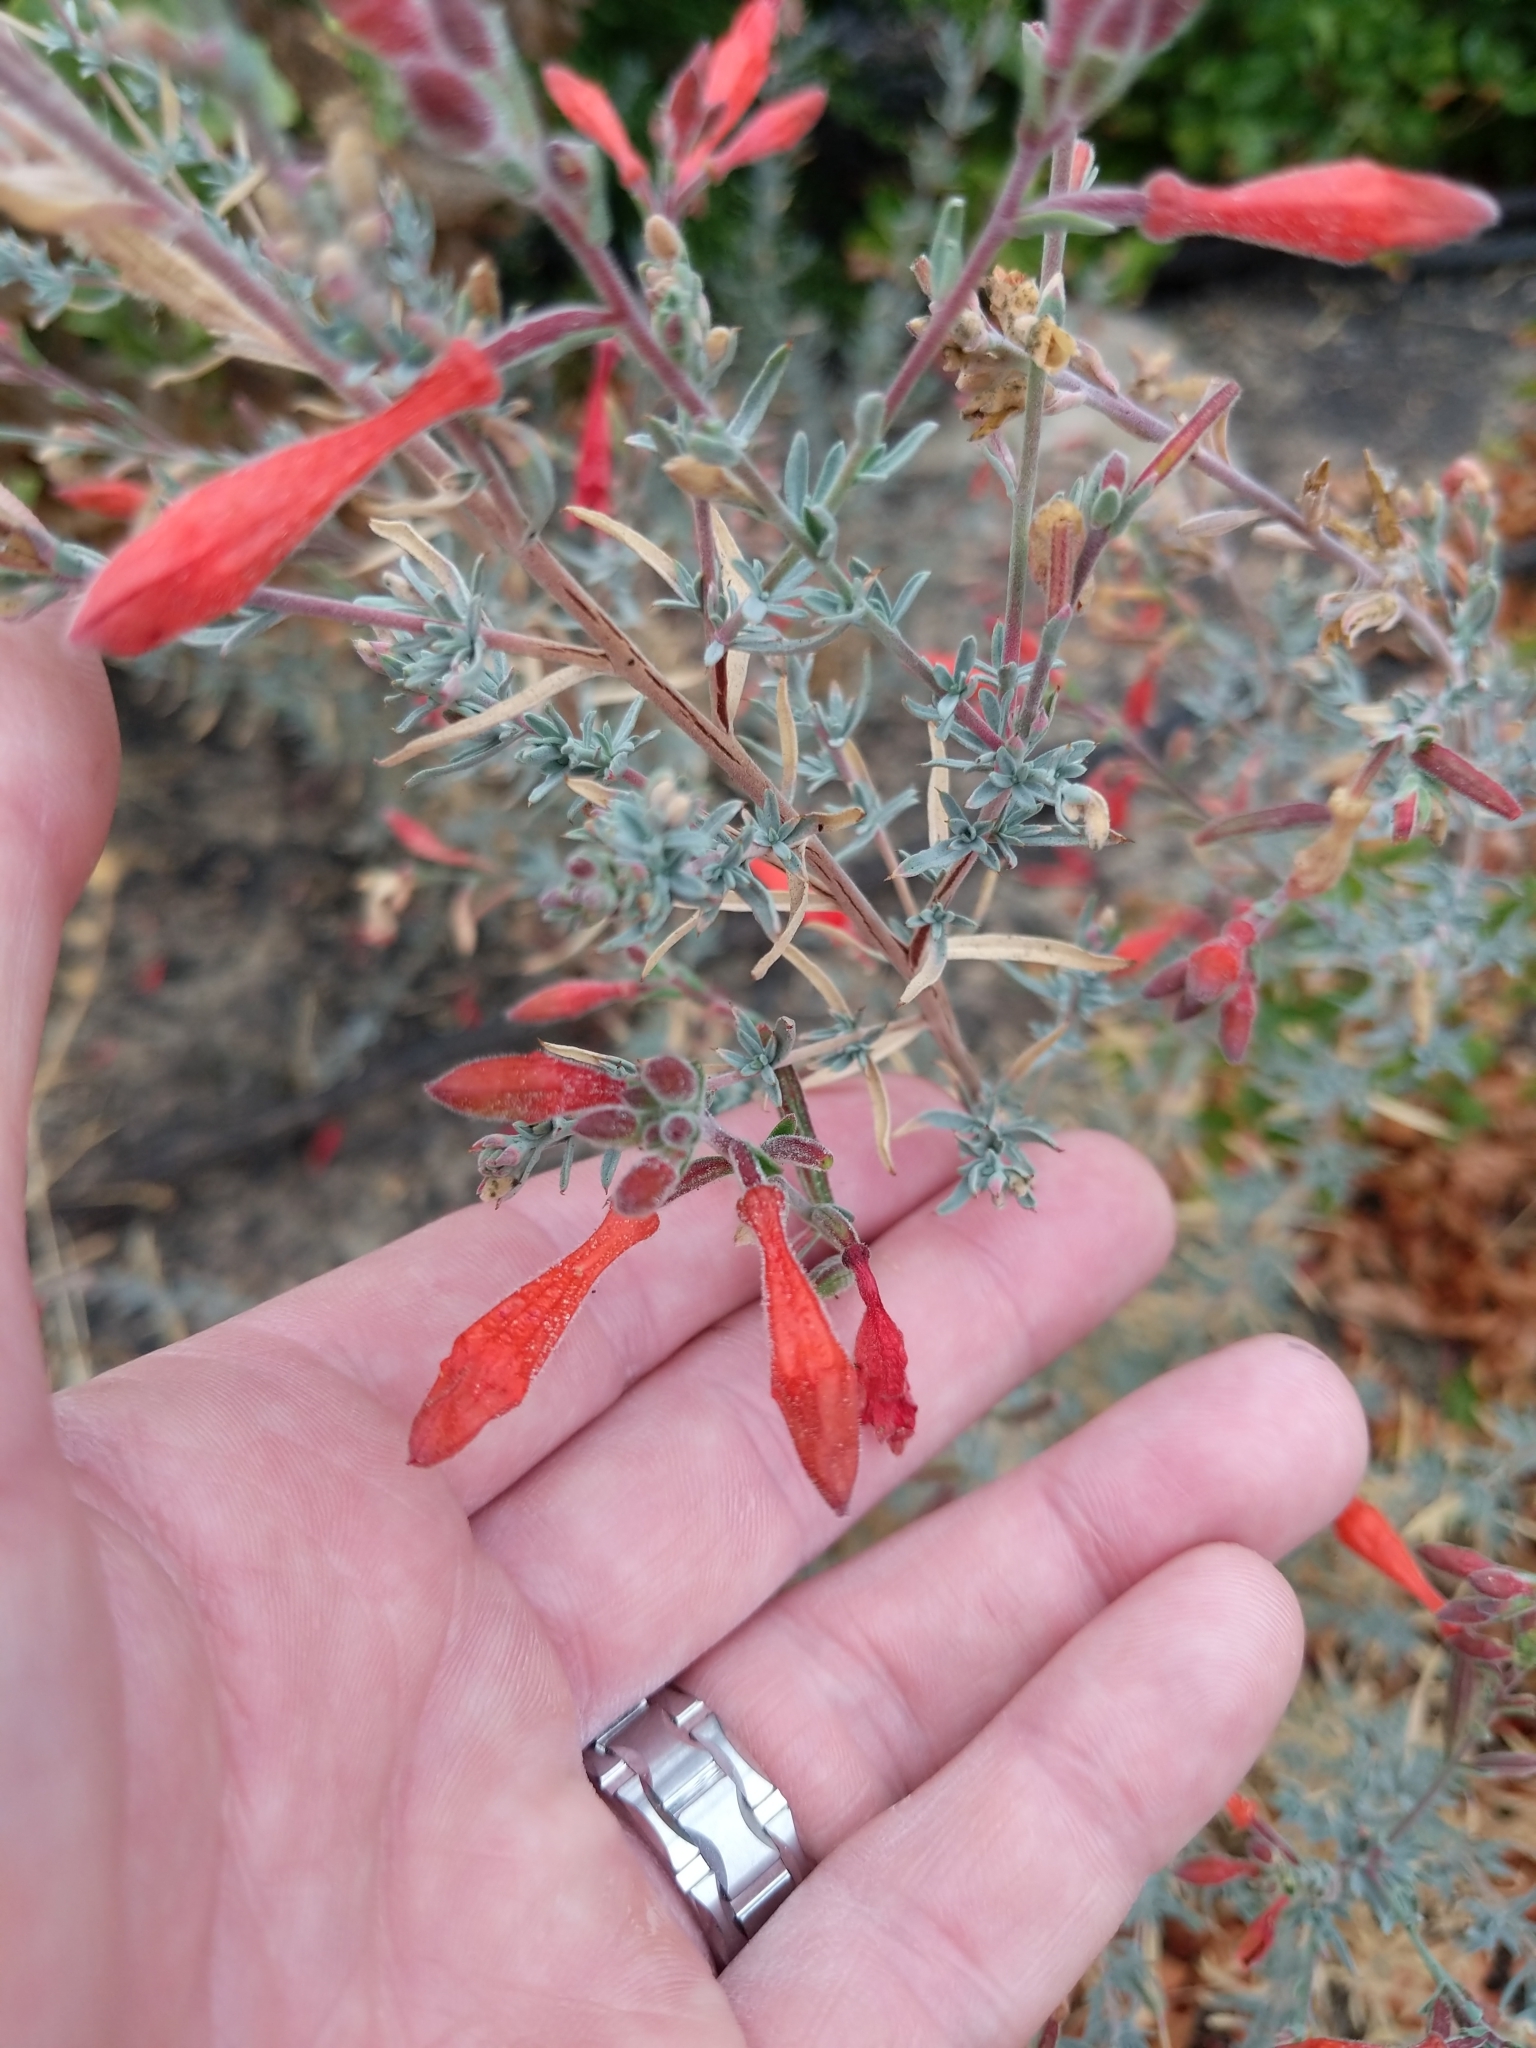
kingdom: Plantae
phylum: Tracheophyta
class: Magnoliopsida
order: Myrtales
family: Onagraceae
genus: Epilobium
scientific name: Epilobium canum
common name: California-fuchsia
